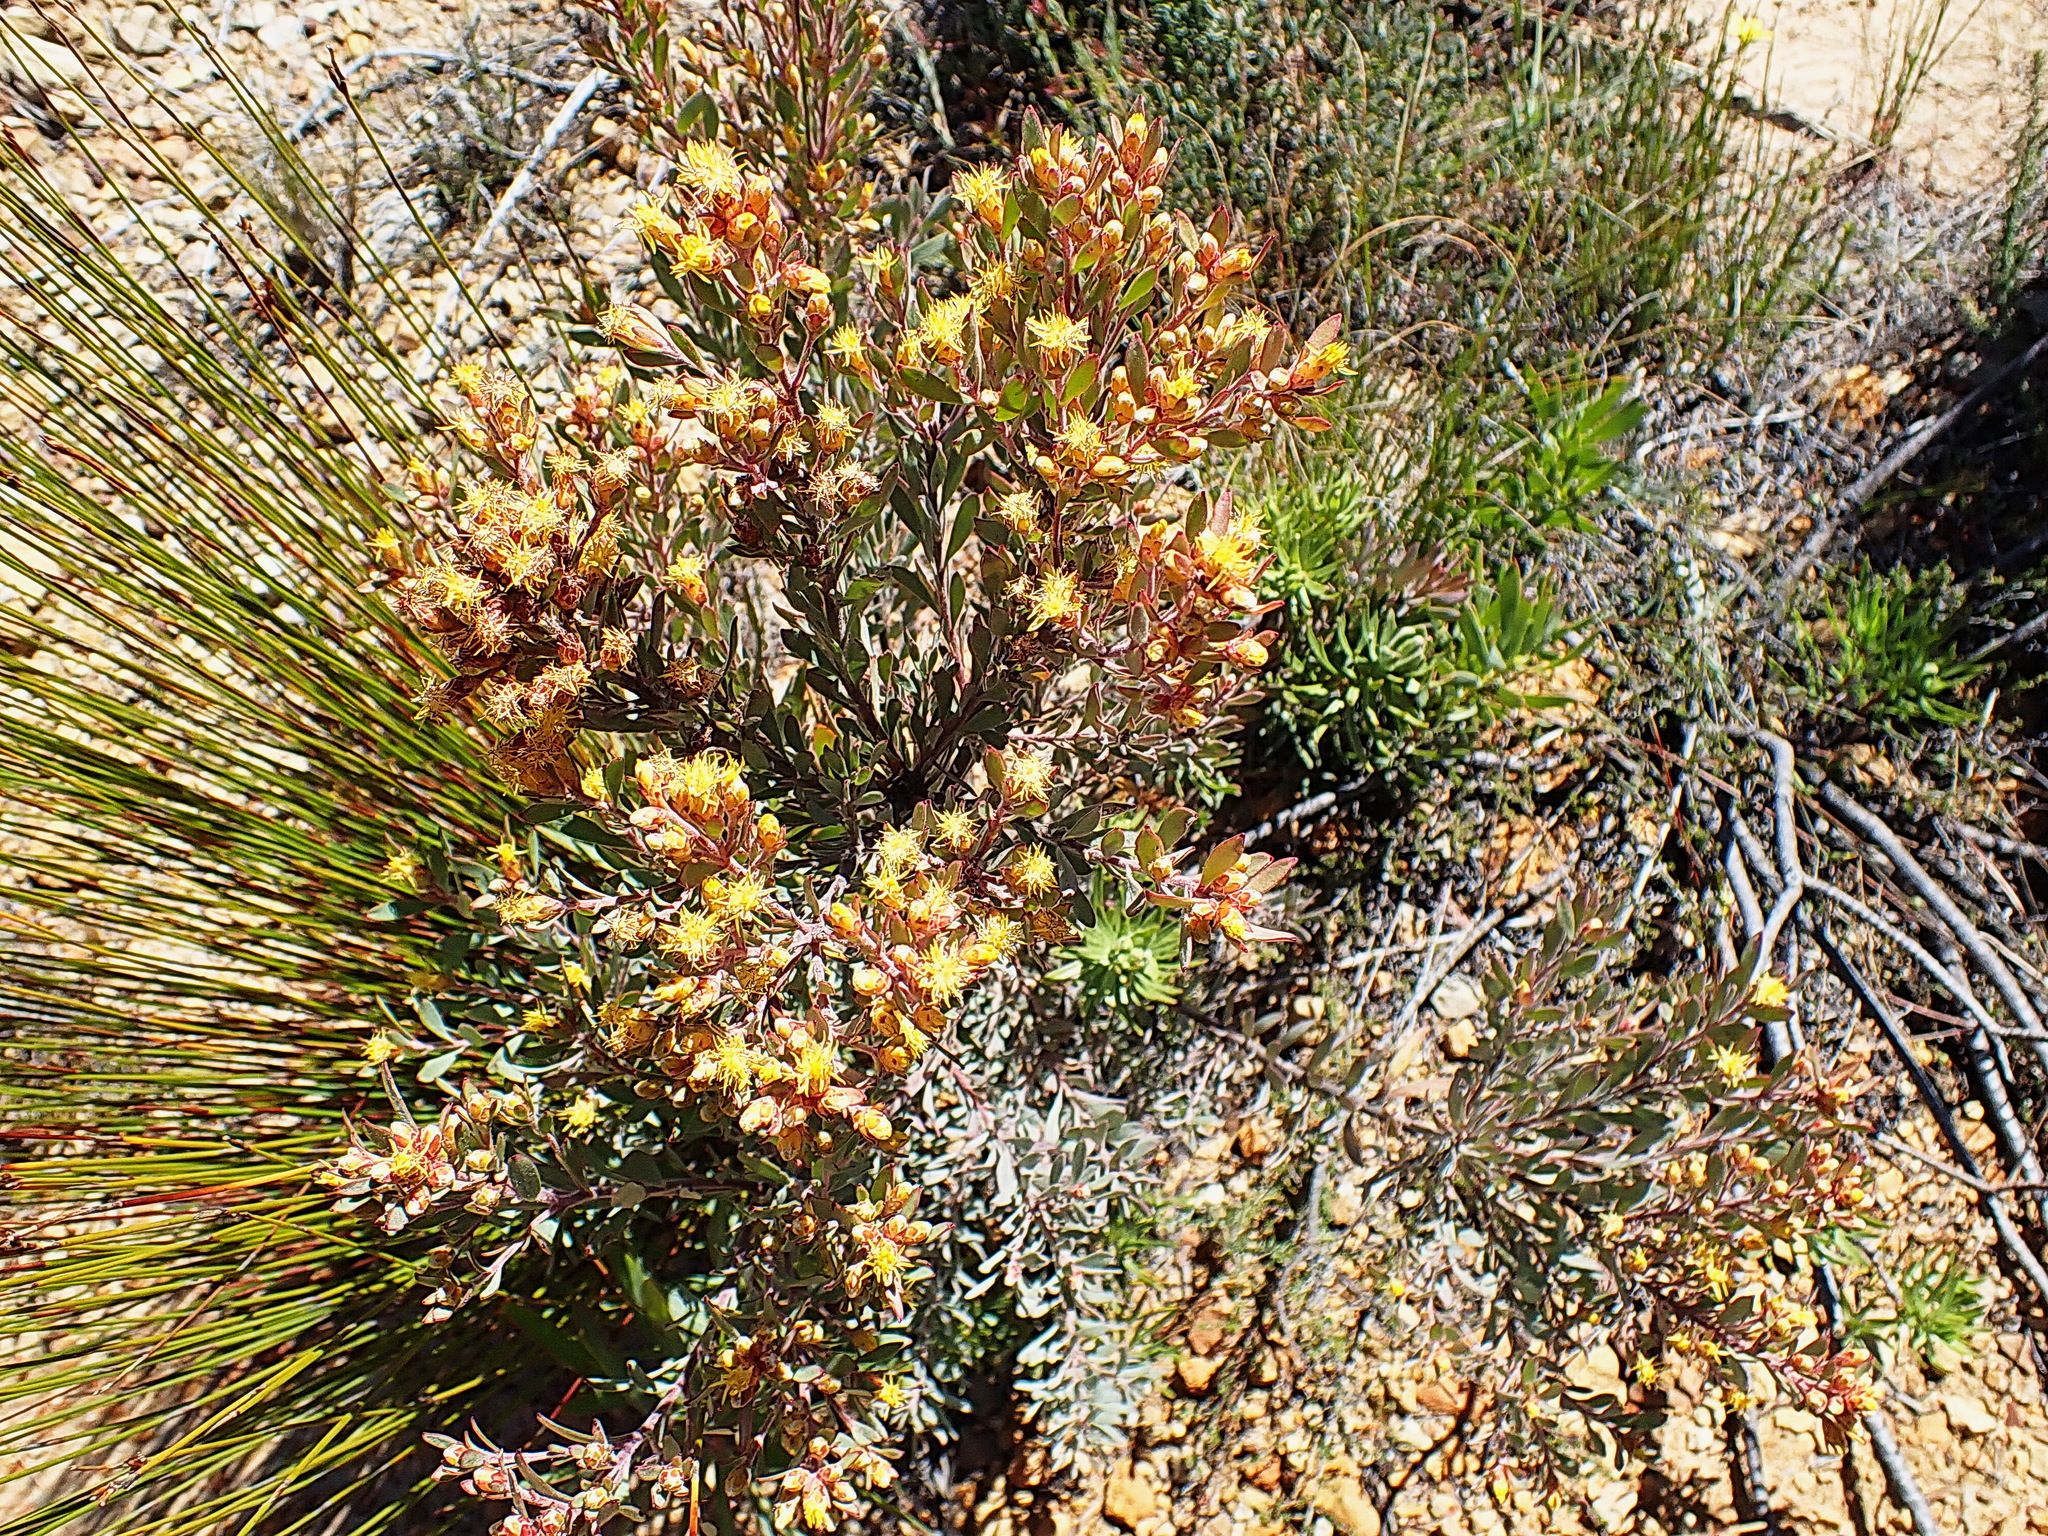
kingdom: Plantae
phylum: Tracheophyta
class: Magnoliopsida
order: Proteales
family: Proteaceae
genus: Leucadendron
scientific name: Leucadendron rubrum
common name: Spinning top
